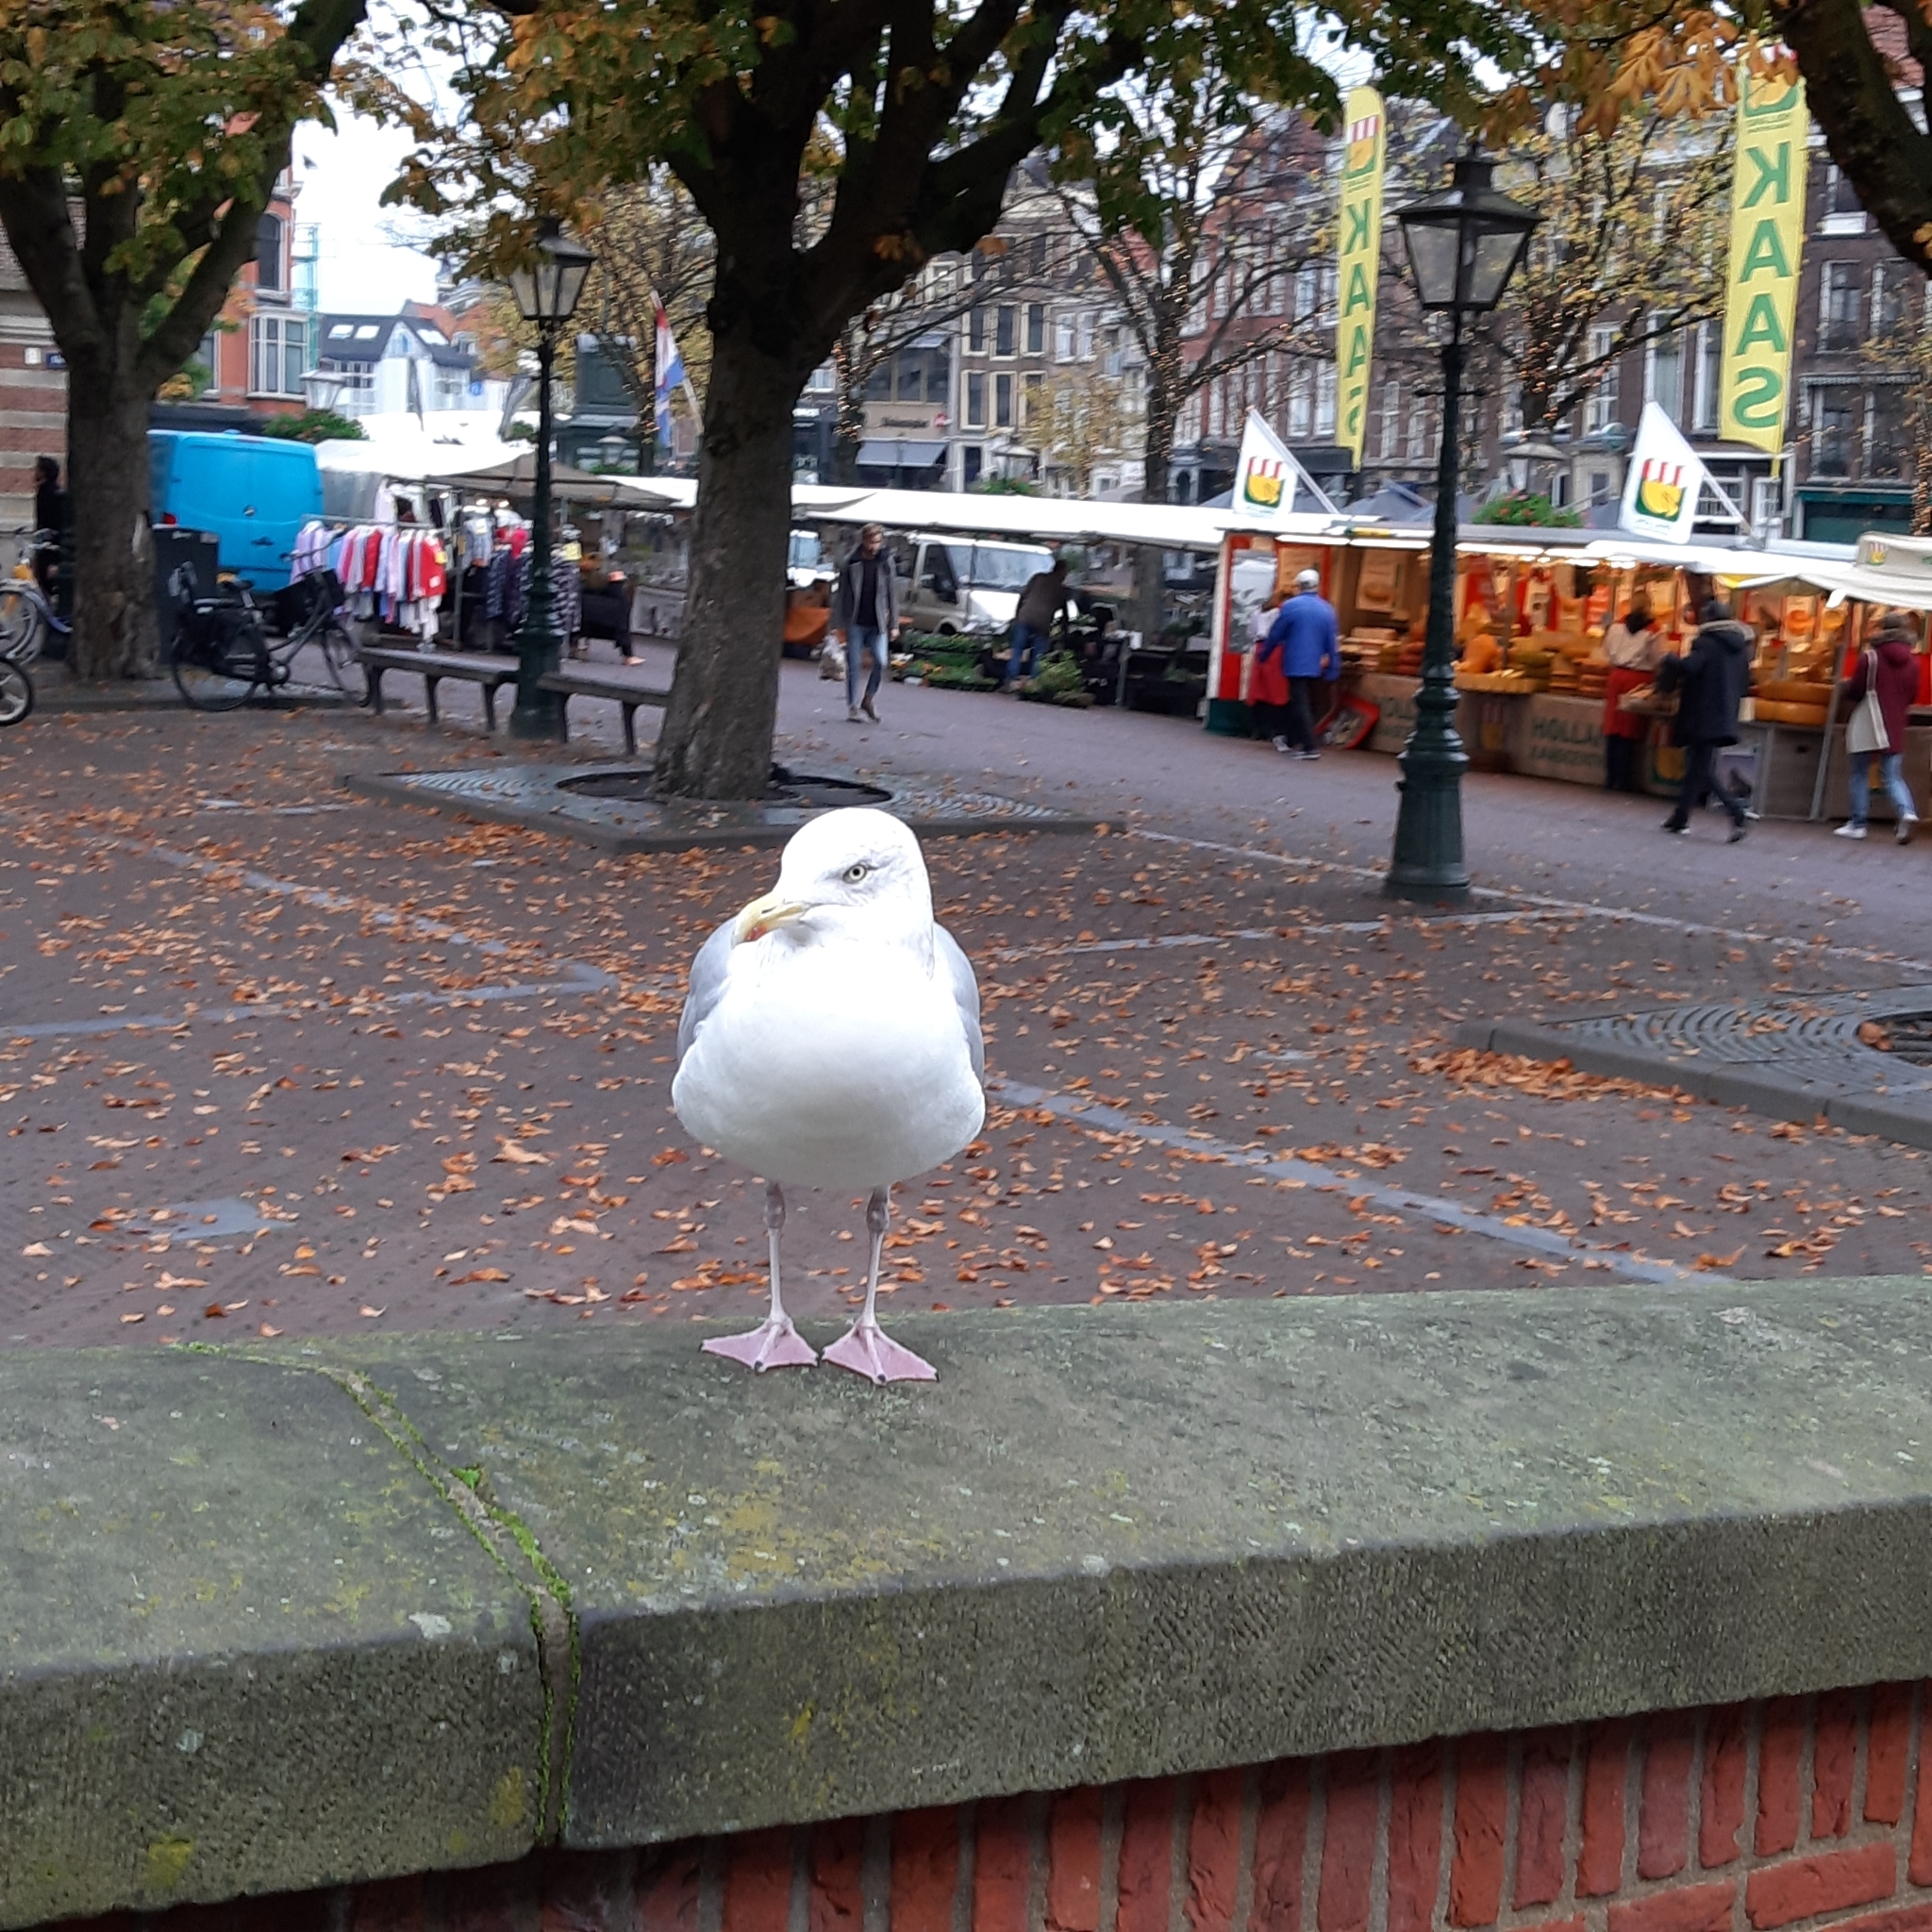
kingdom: Animalia
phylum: Chordata
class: Aves
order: Charadriiformes
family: Laridae
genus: Larus
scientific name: Larus argentatus
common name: Herring gull
